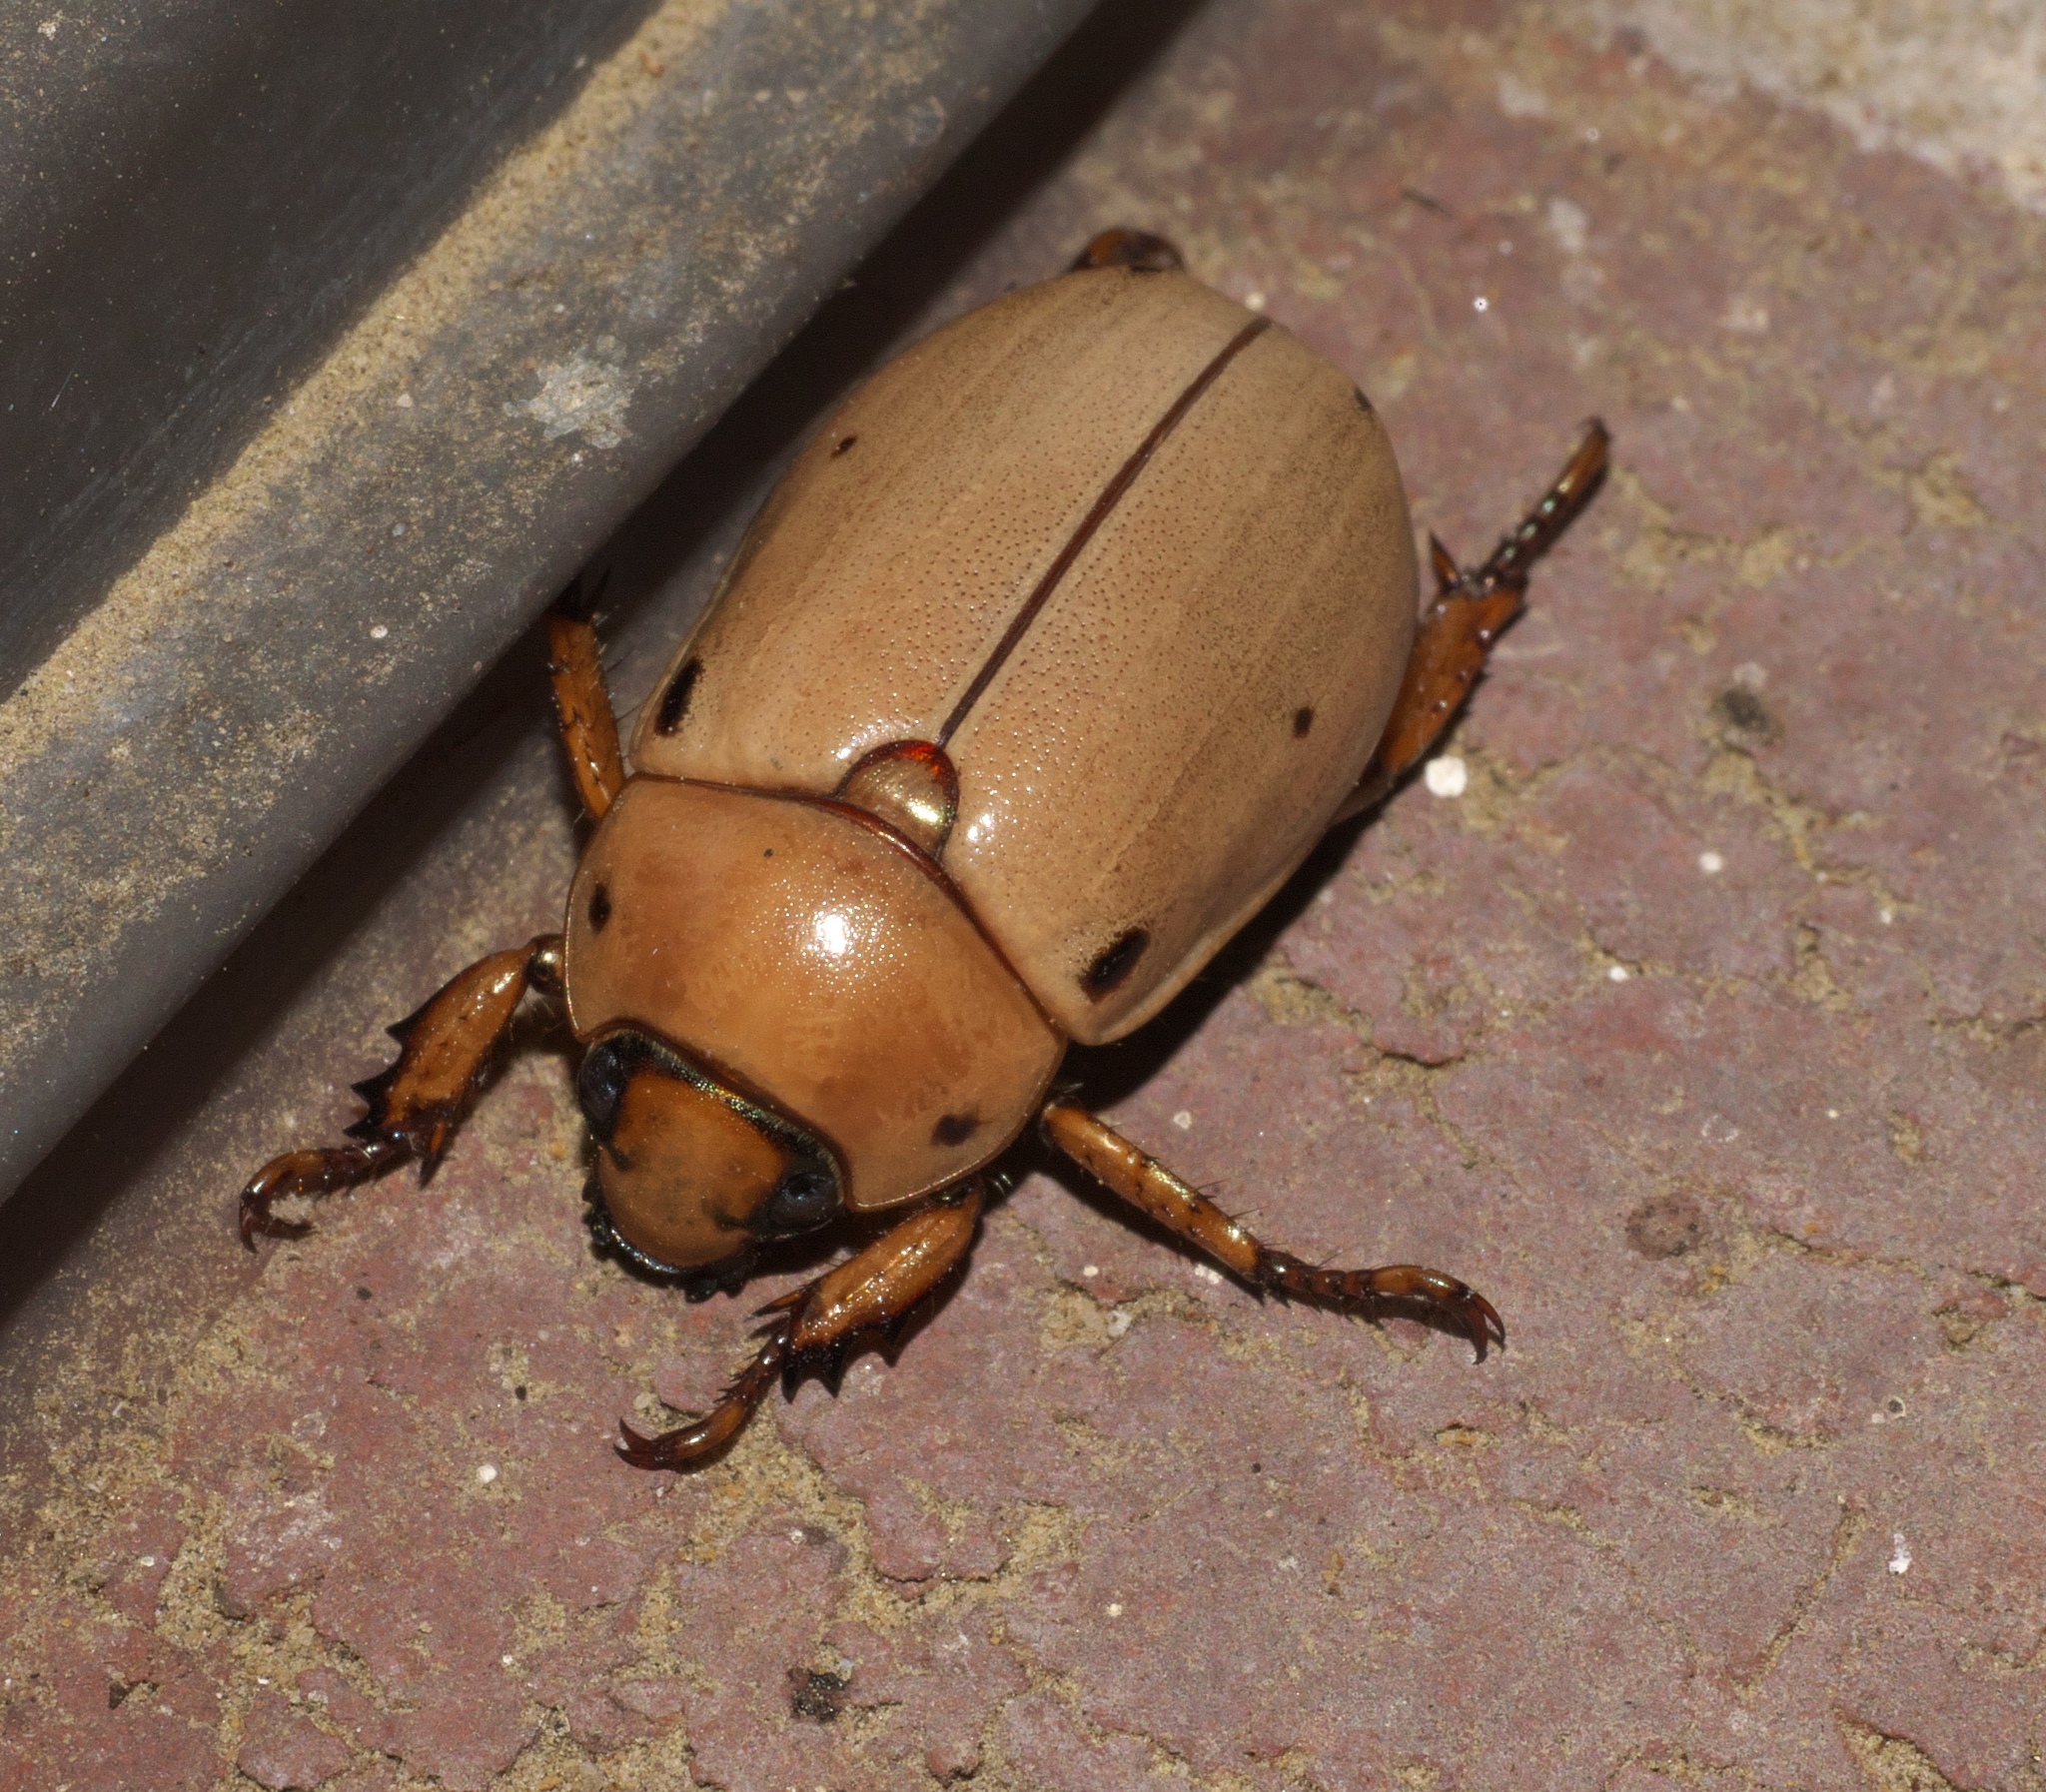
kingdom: Animalia
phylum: Arthropoda
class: Insecta
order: Coleoptera
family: Scarabaeidae
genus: Pelidnota
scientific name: Pelidnota punctata
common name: Grapevine beetle
